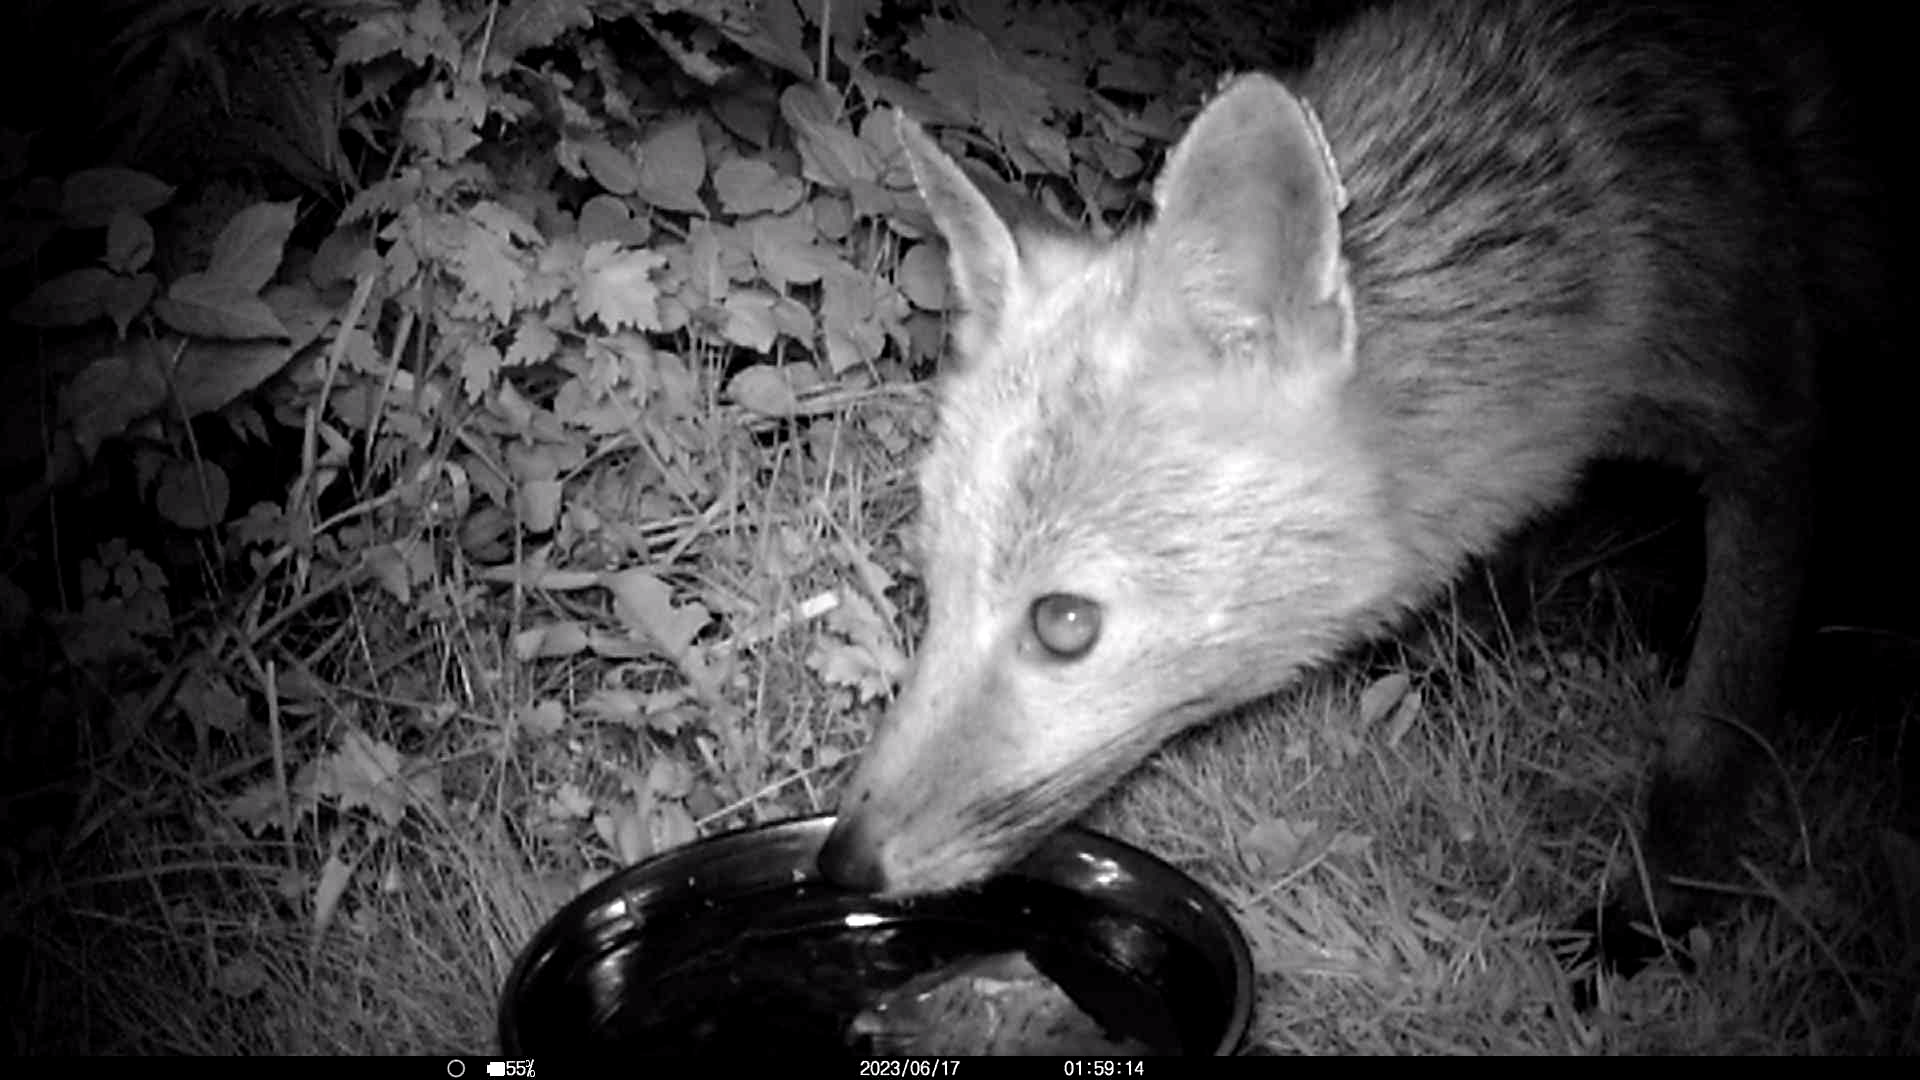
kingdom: Animalia
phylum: Chordata
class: Mammalia
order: Carnivora
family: Canidae
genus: Vulpes
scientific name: Vulpes vulpes
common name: Red fox
